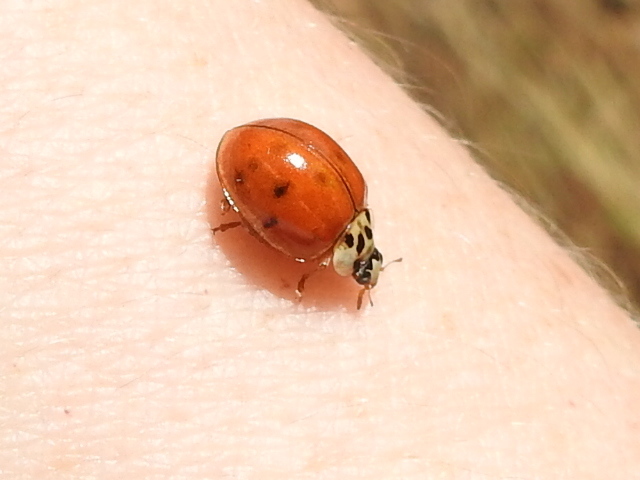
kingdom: Animalia
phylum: Arthropoda
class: Insecta
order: Coleoptera
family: Coccinellidae
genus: Harmonia
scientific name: Harmonia axyridis
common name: Harlequin ladybird
